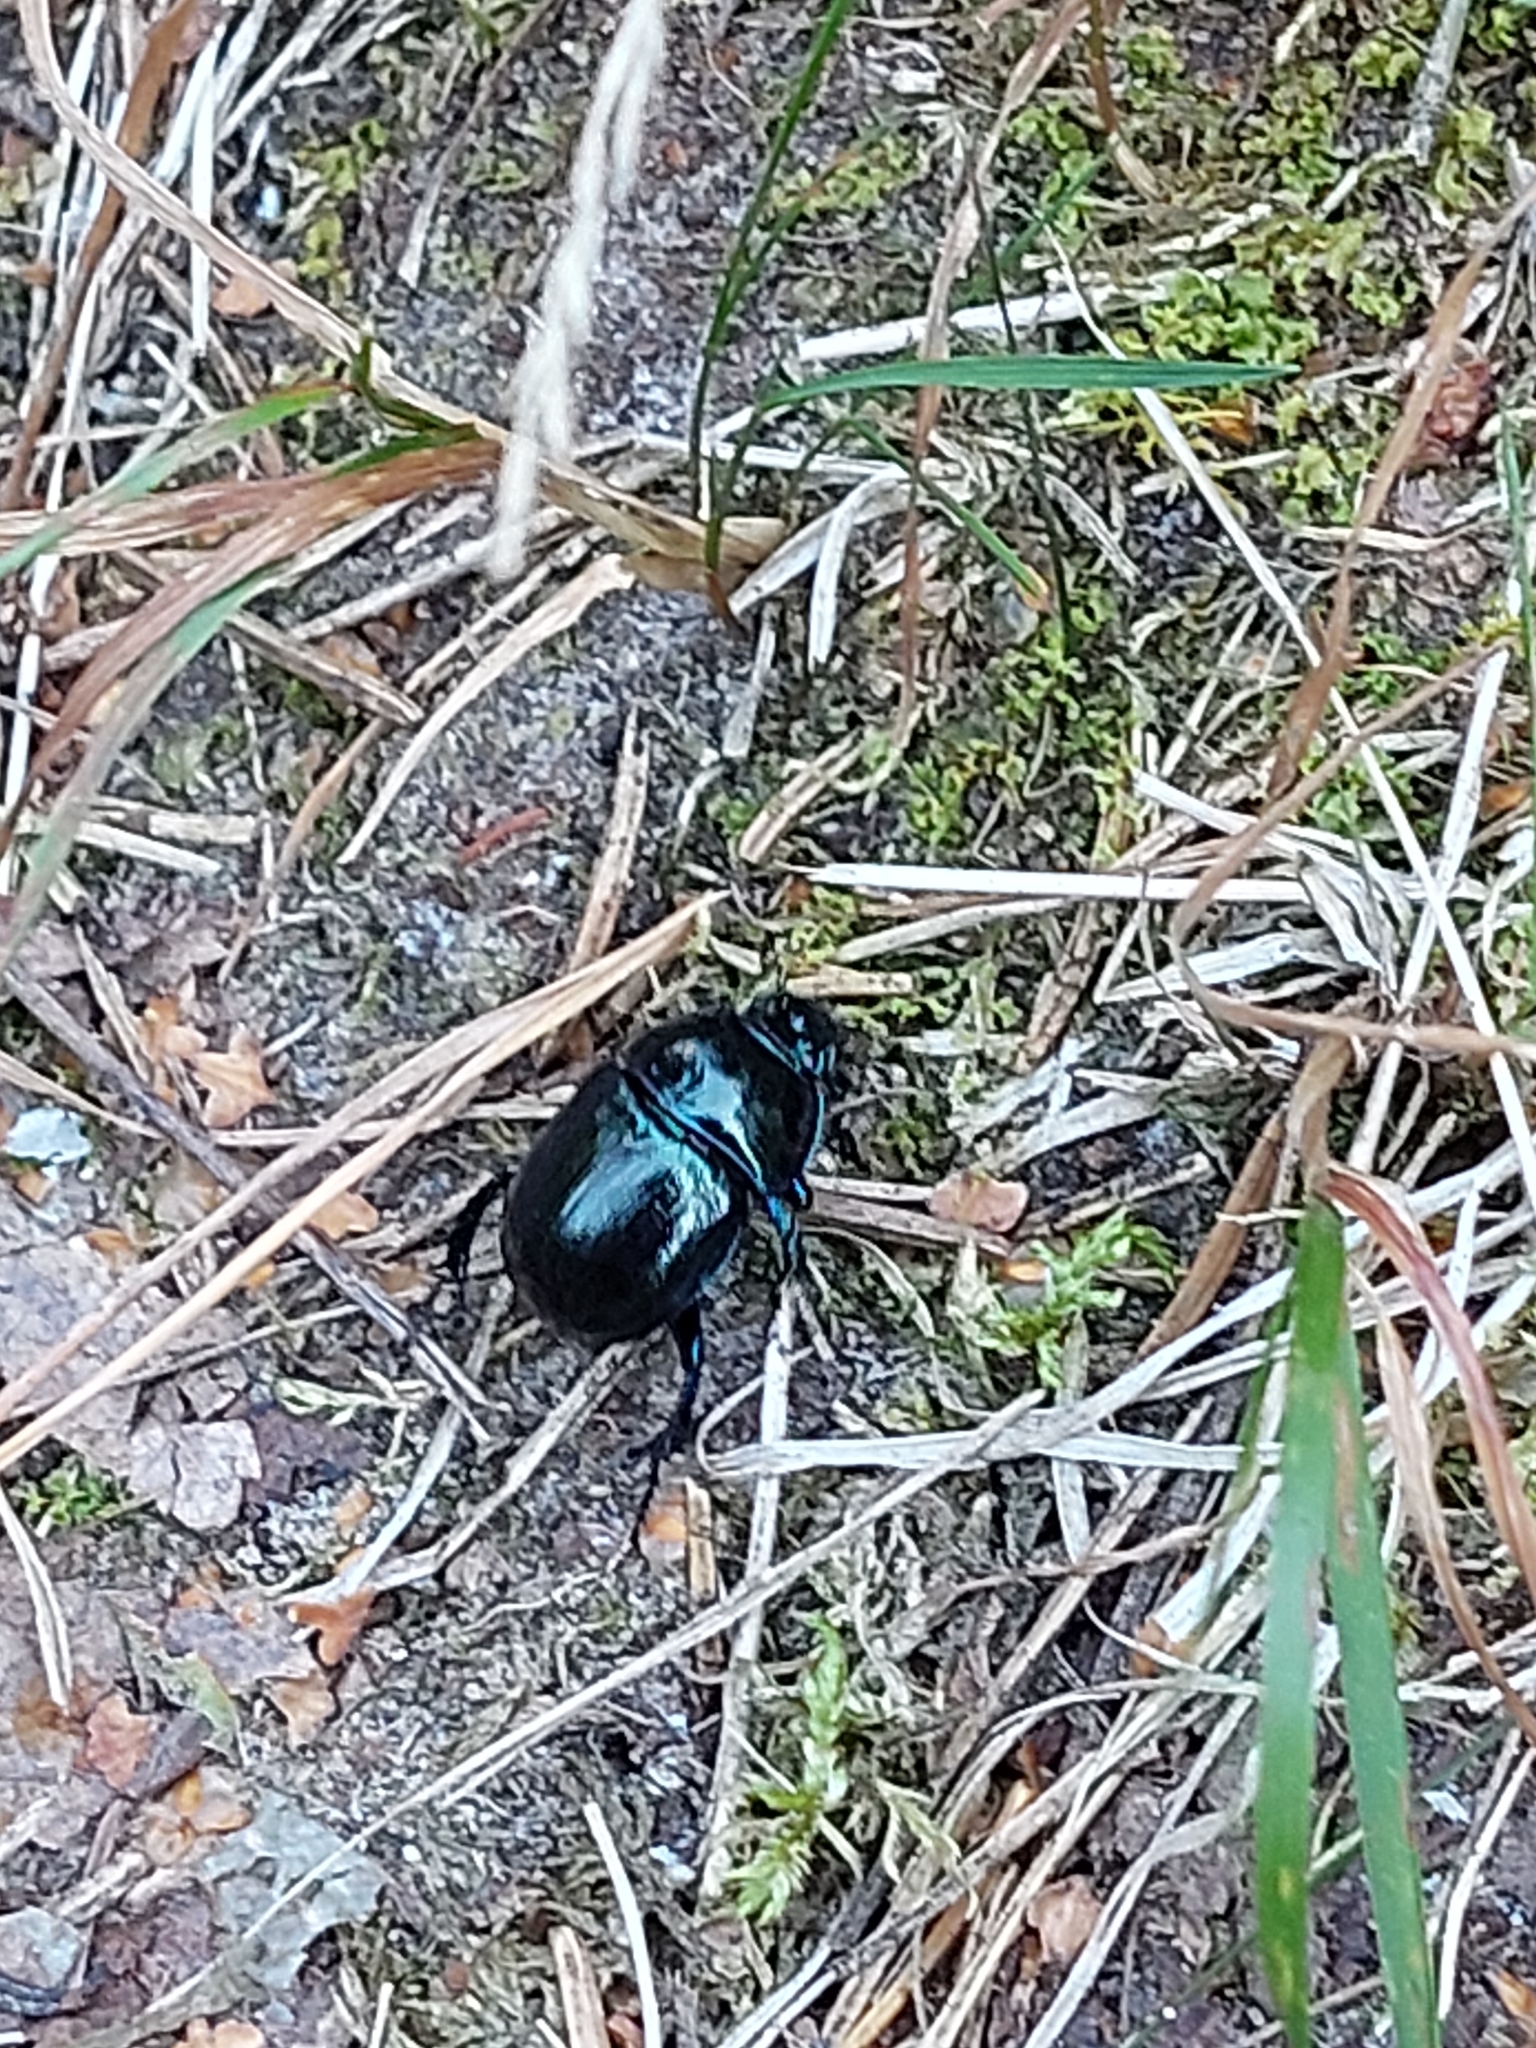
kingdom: Animalia
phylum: Arthropoda
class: Insecta
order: Coleoptera
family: Geotrupidae
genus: Anoplotrupes
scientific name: Anoplotrupes stercorosus
